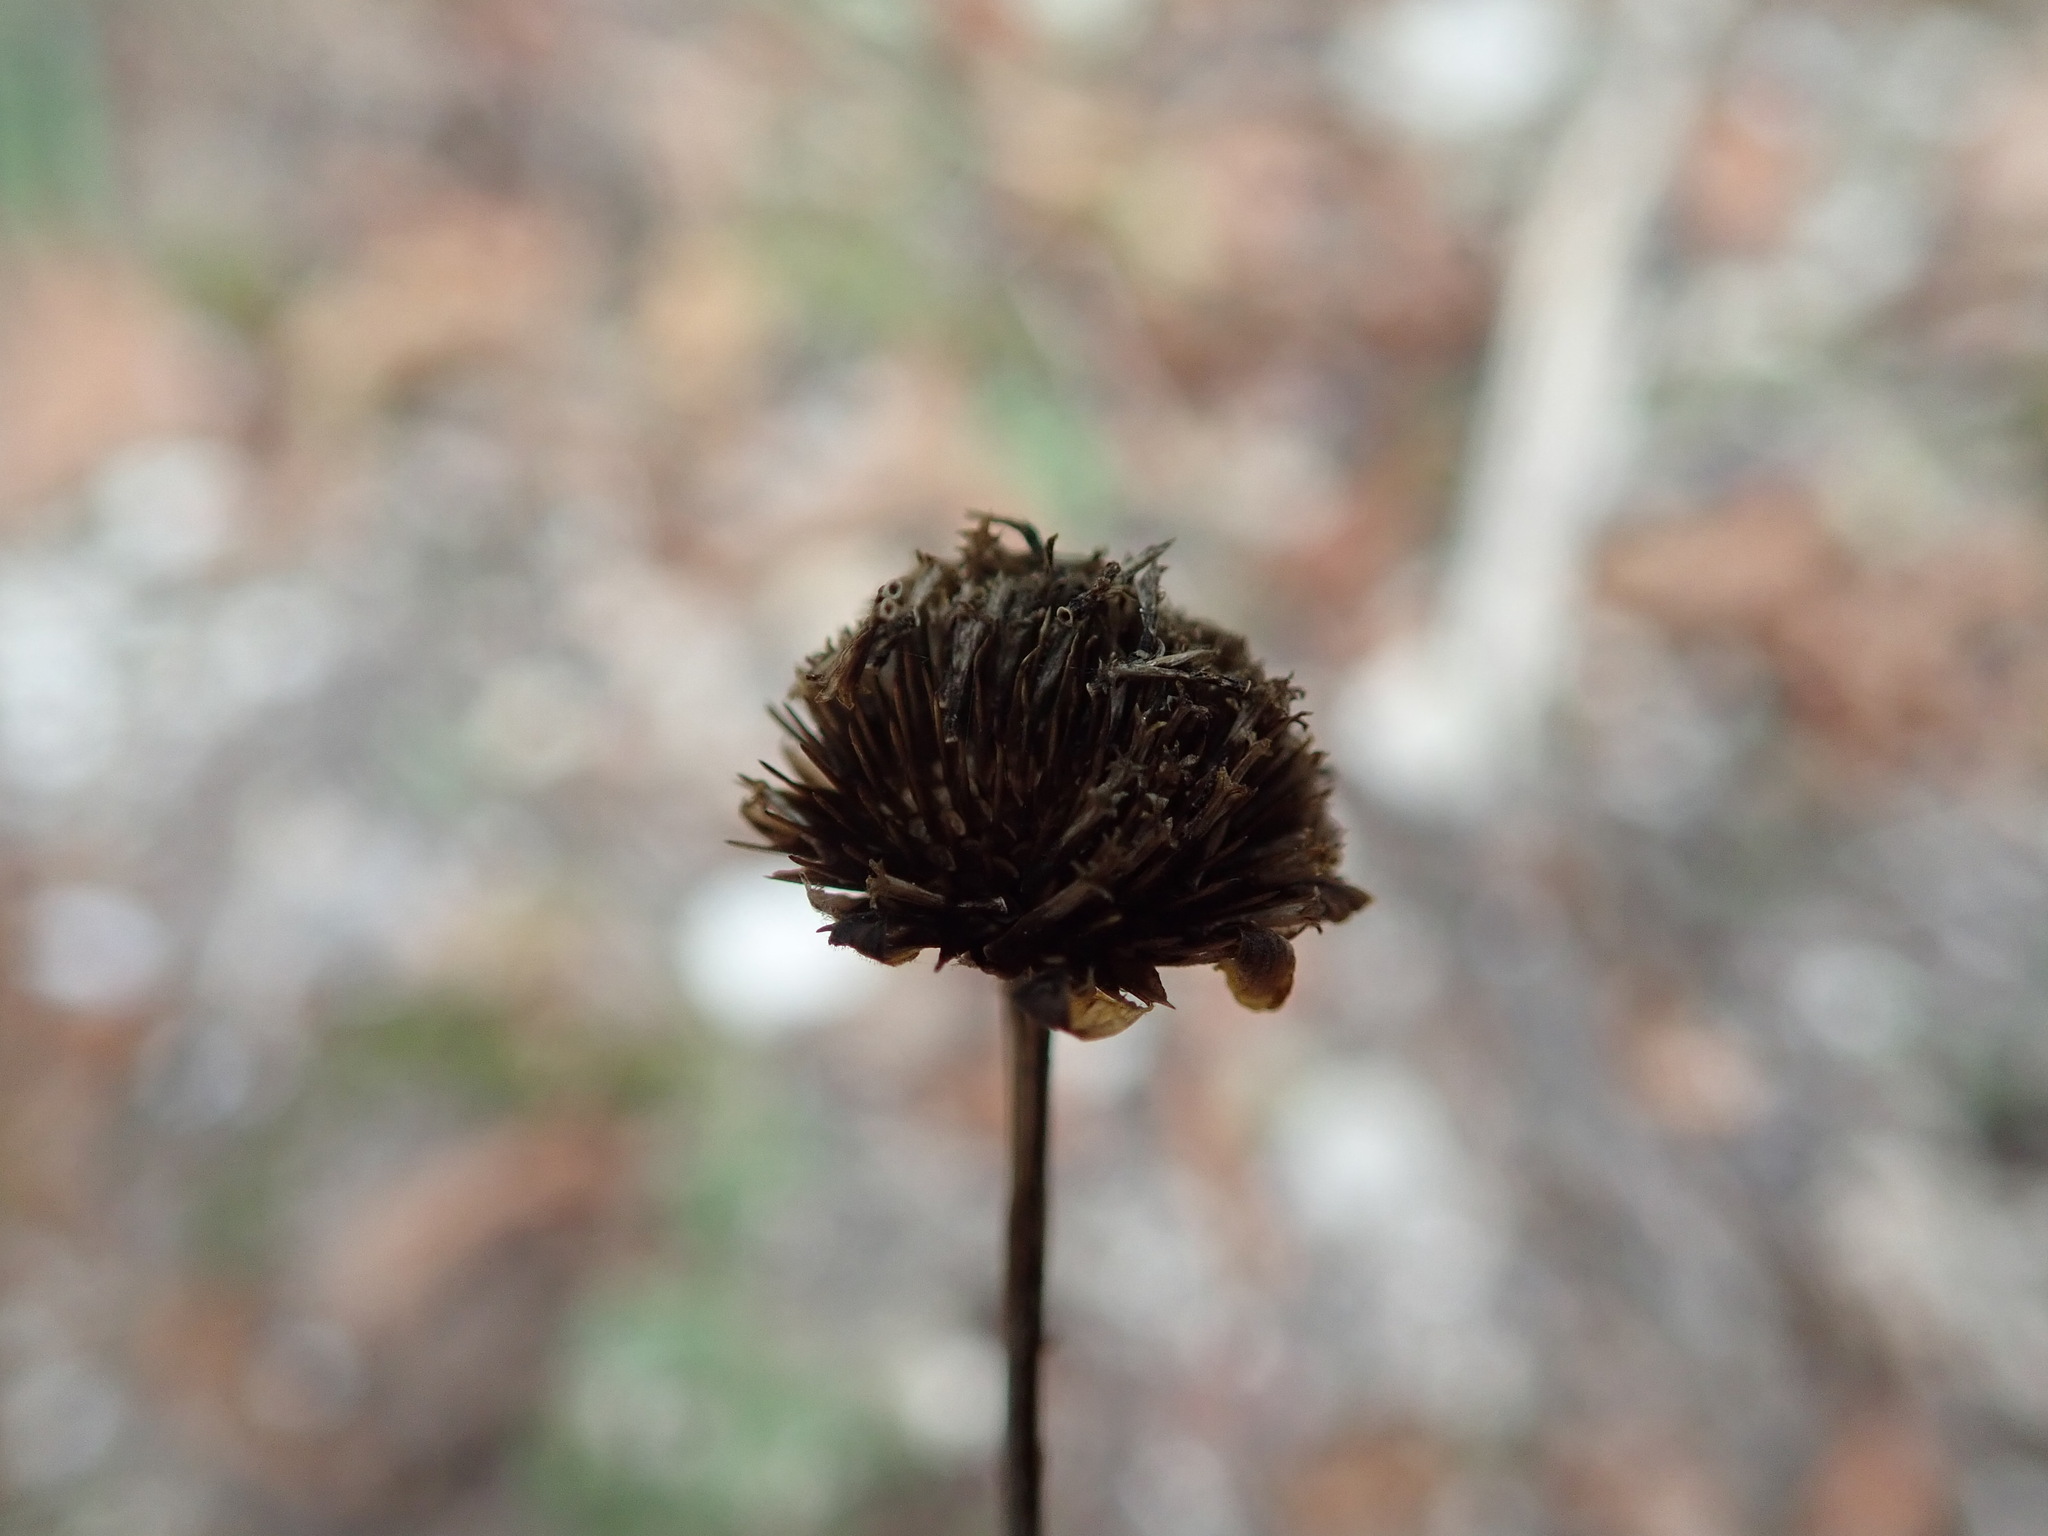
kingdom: Plantae
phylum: Tracheophyta
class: Magnoliopsida
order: Asterales
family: Asteraceae
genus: Cota
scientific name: Cota tinctoria
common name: Golden chamomile
